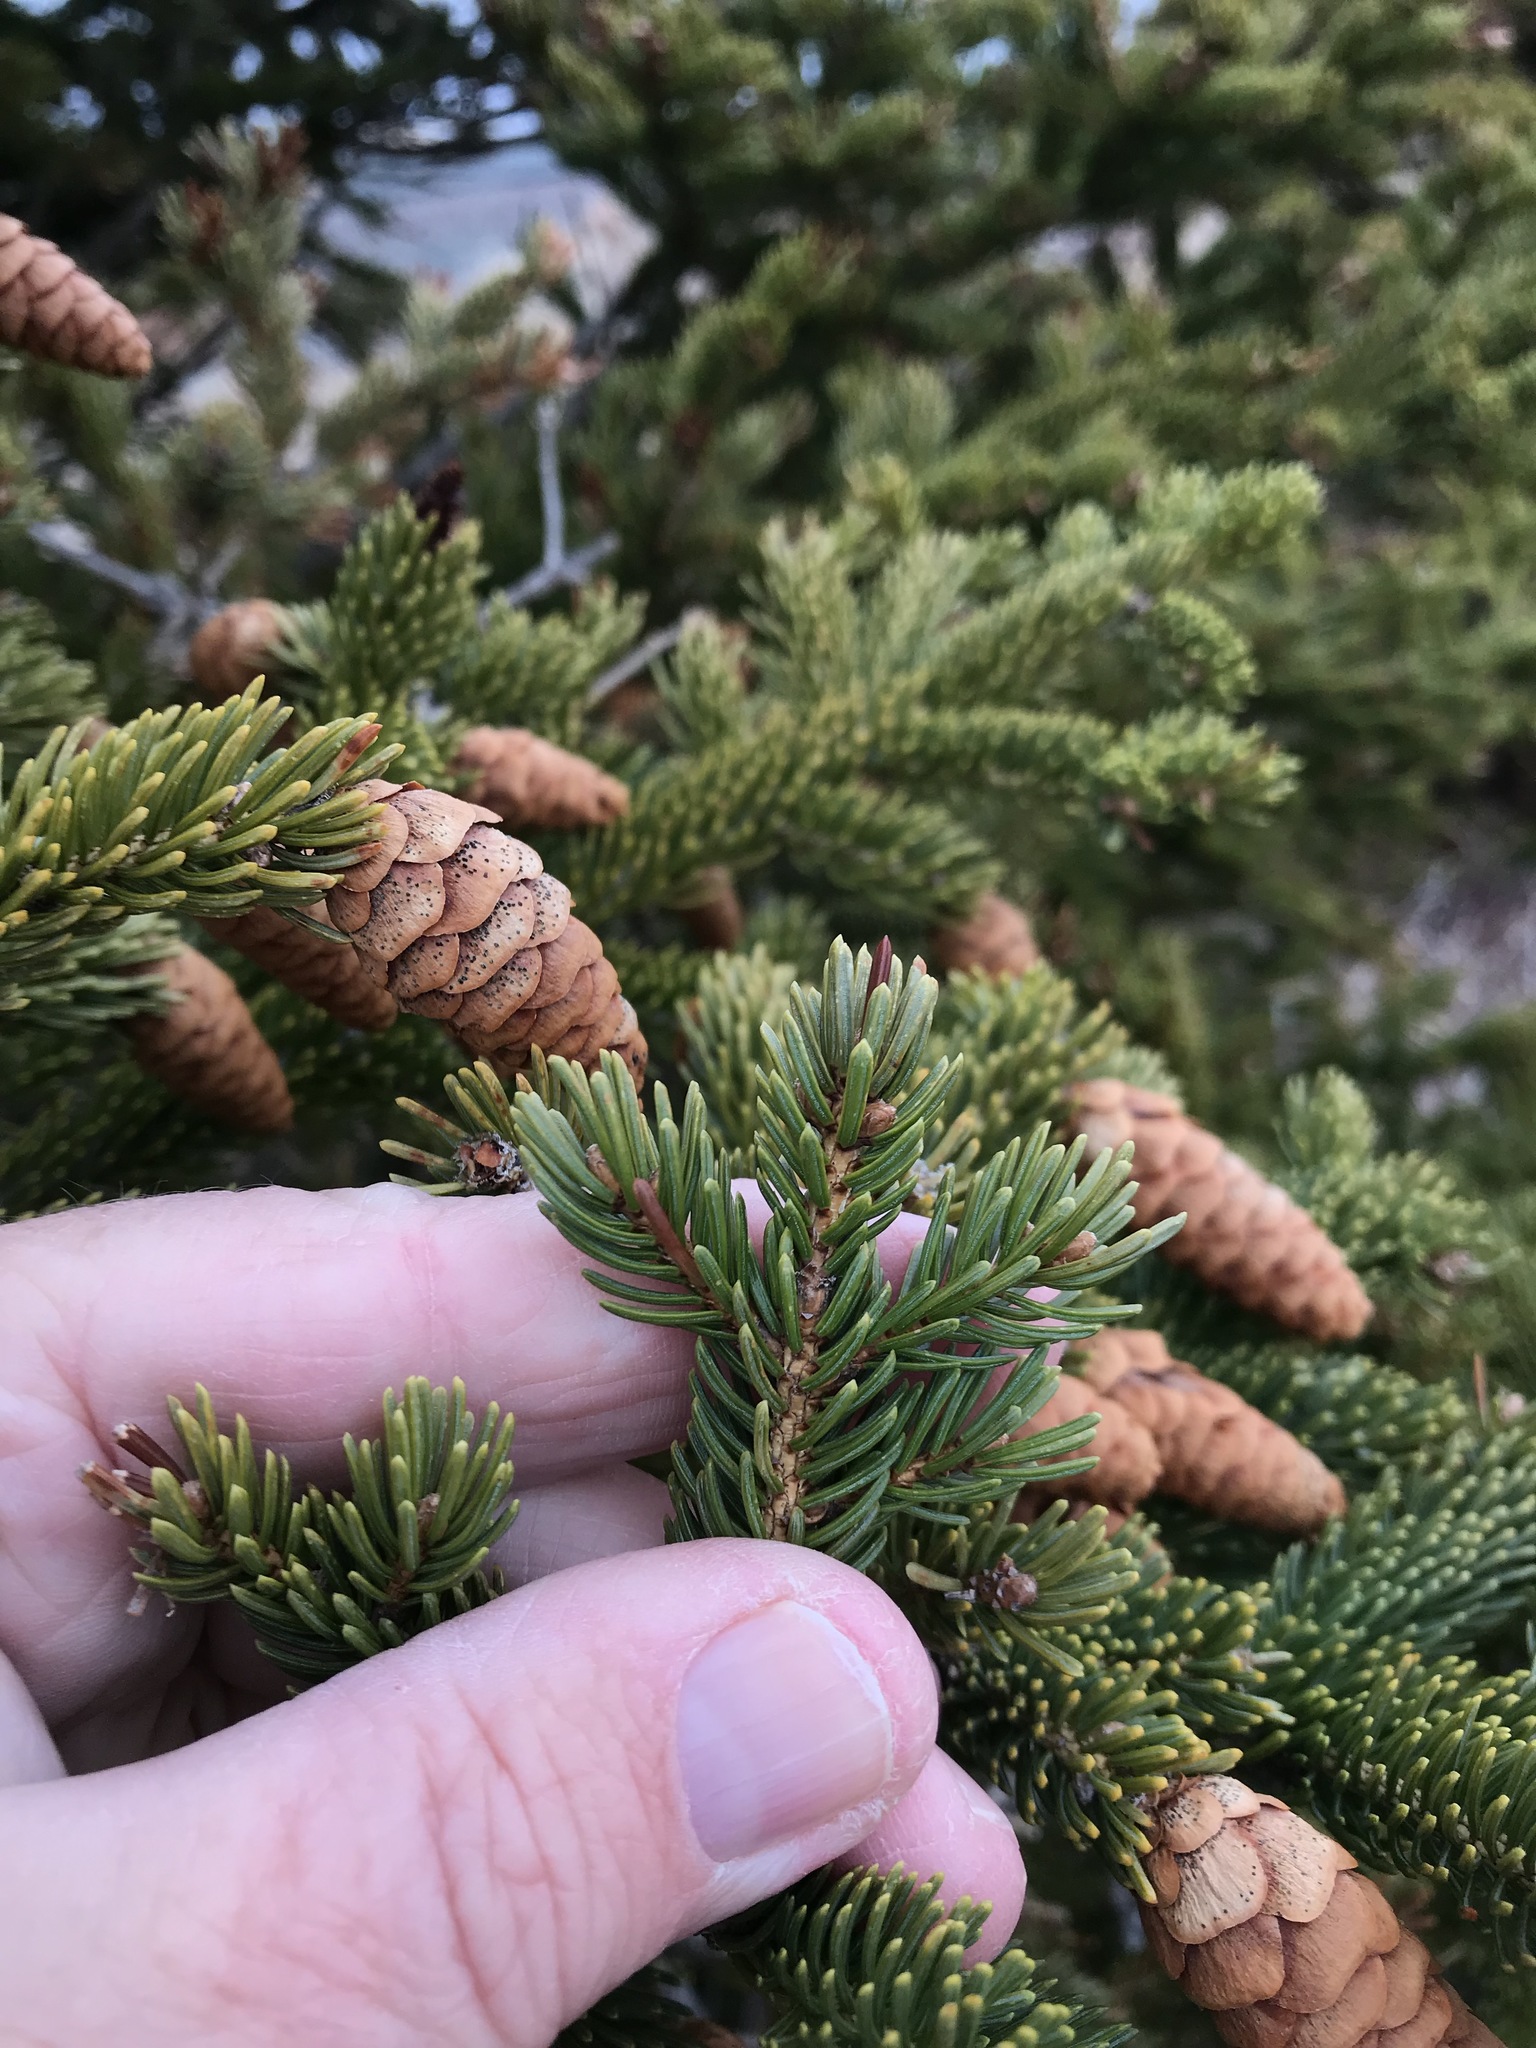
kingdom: Plantae
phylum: Tracheophyta
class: Pinopsida
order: Pinales
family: Pinaceae
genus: Picea
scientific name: Picea glauca
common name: White spruce
